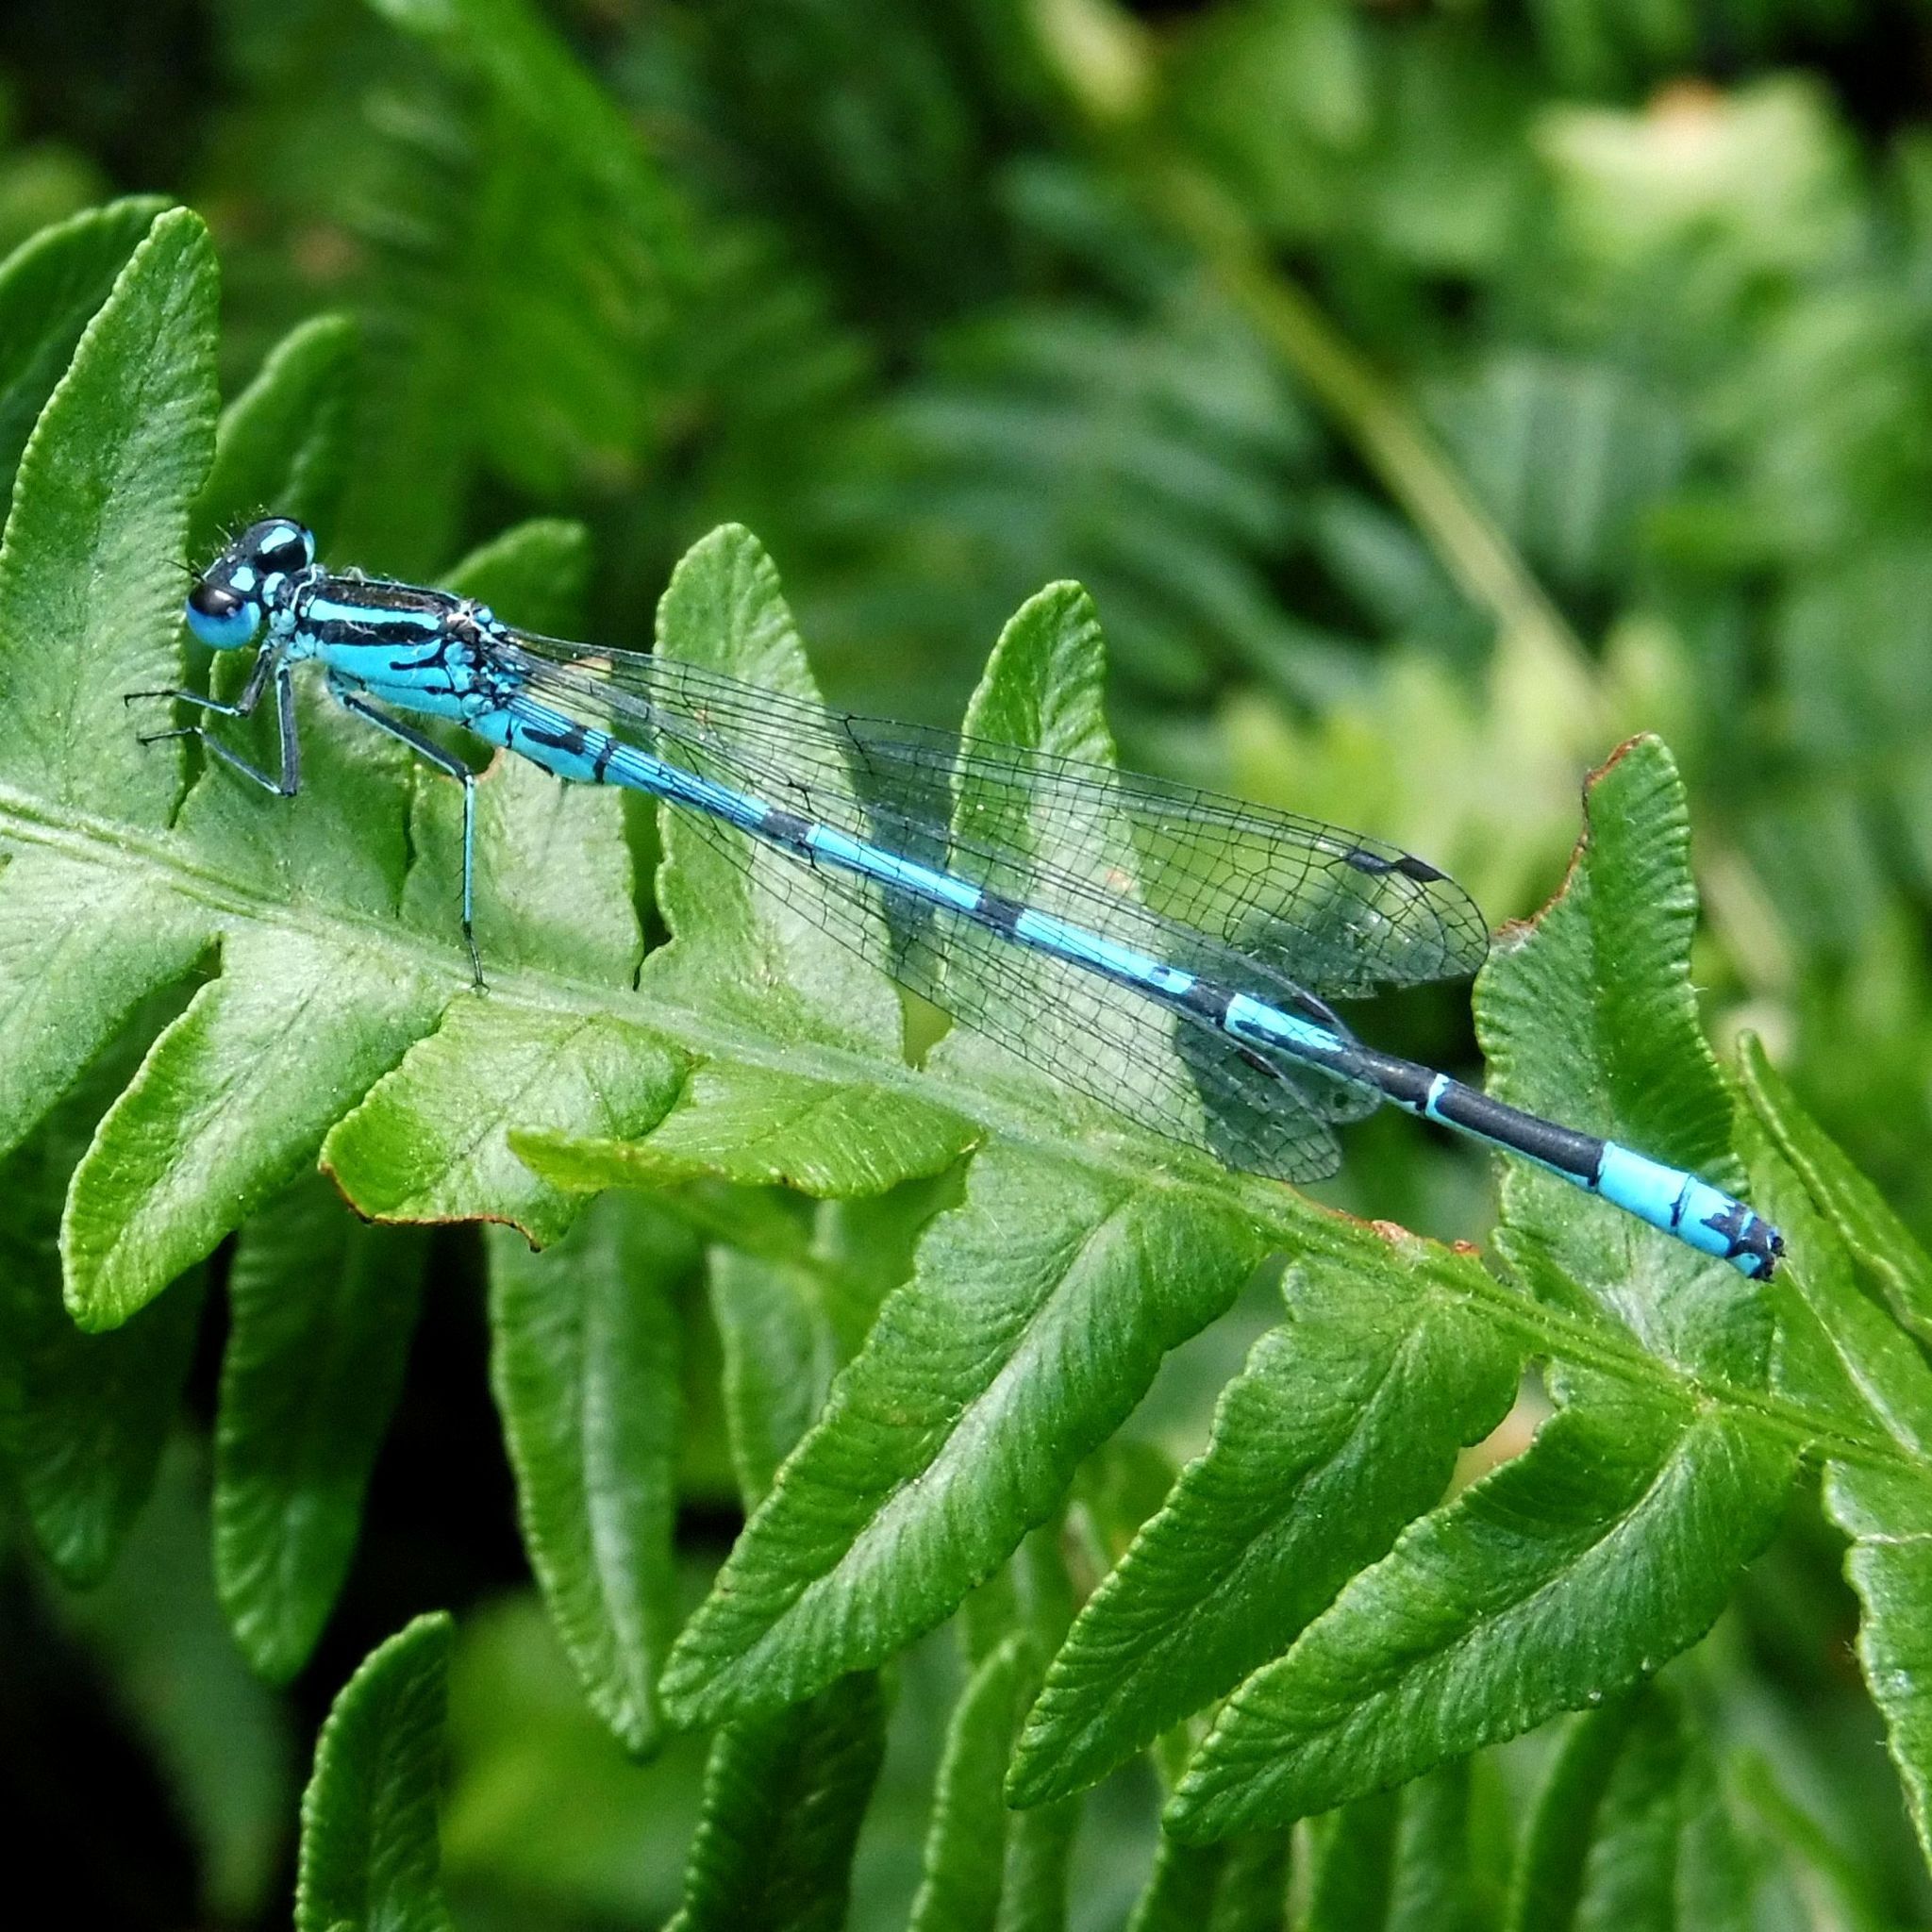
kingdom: Animalia
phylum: Arthropoda
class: Insecta
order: Odonata
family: Coenagrionidae
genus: Coenagrion
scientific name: Coenagrion puella
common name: Azure damselfly
